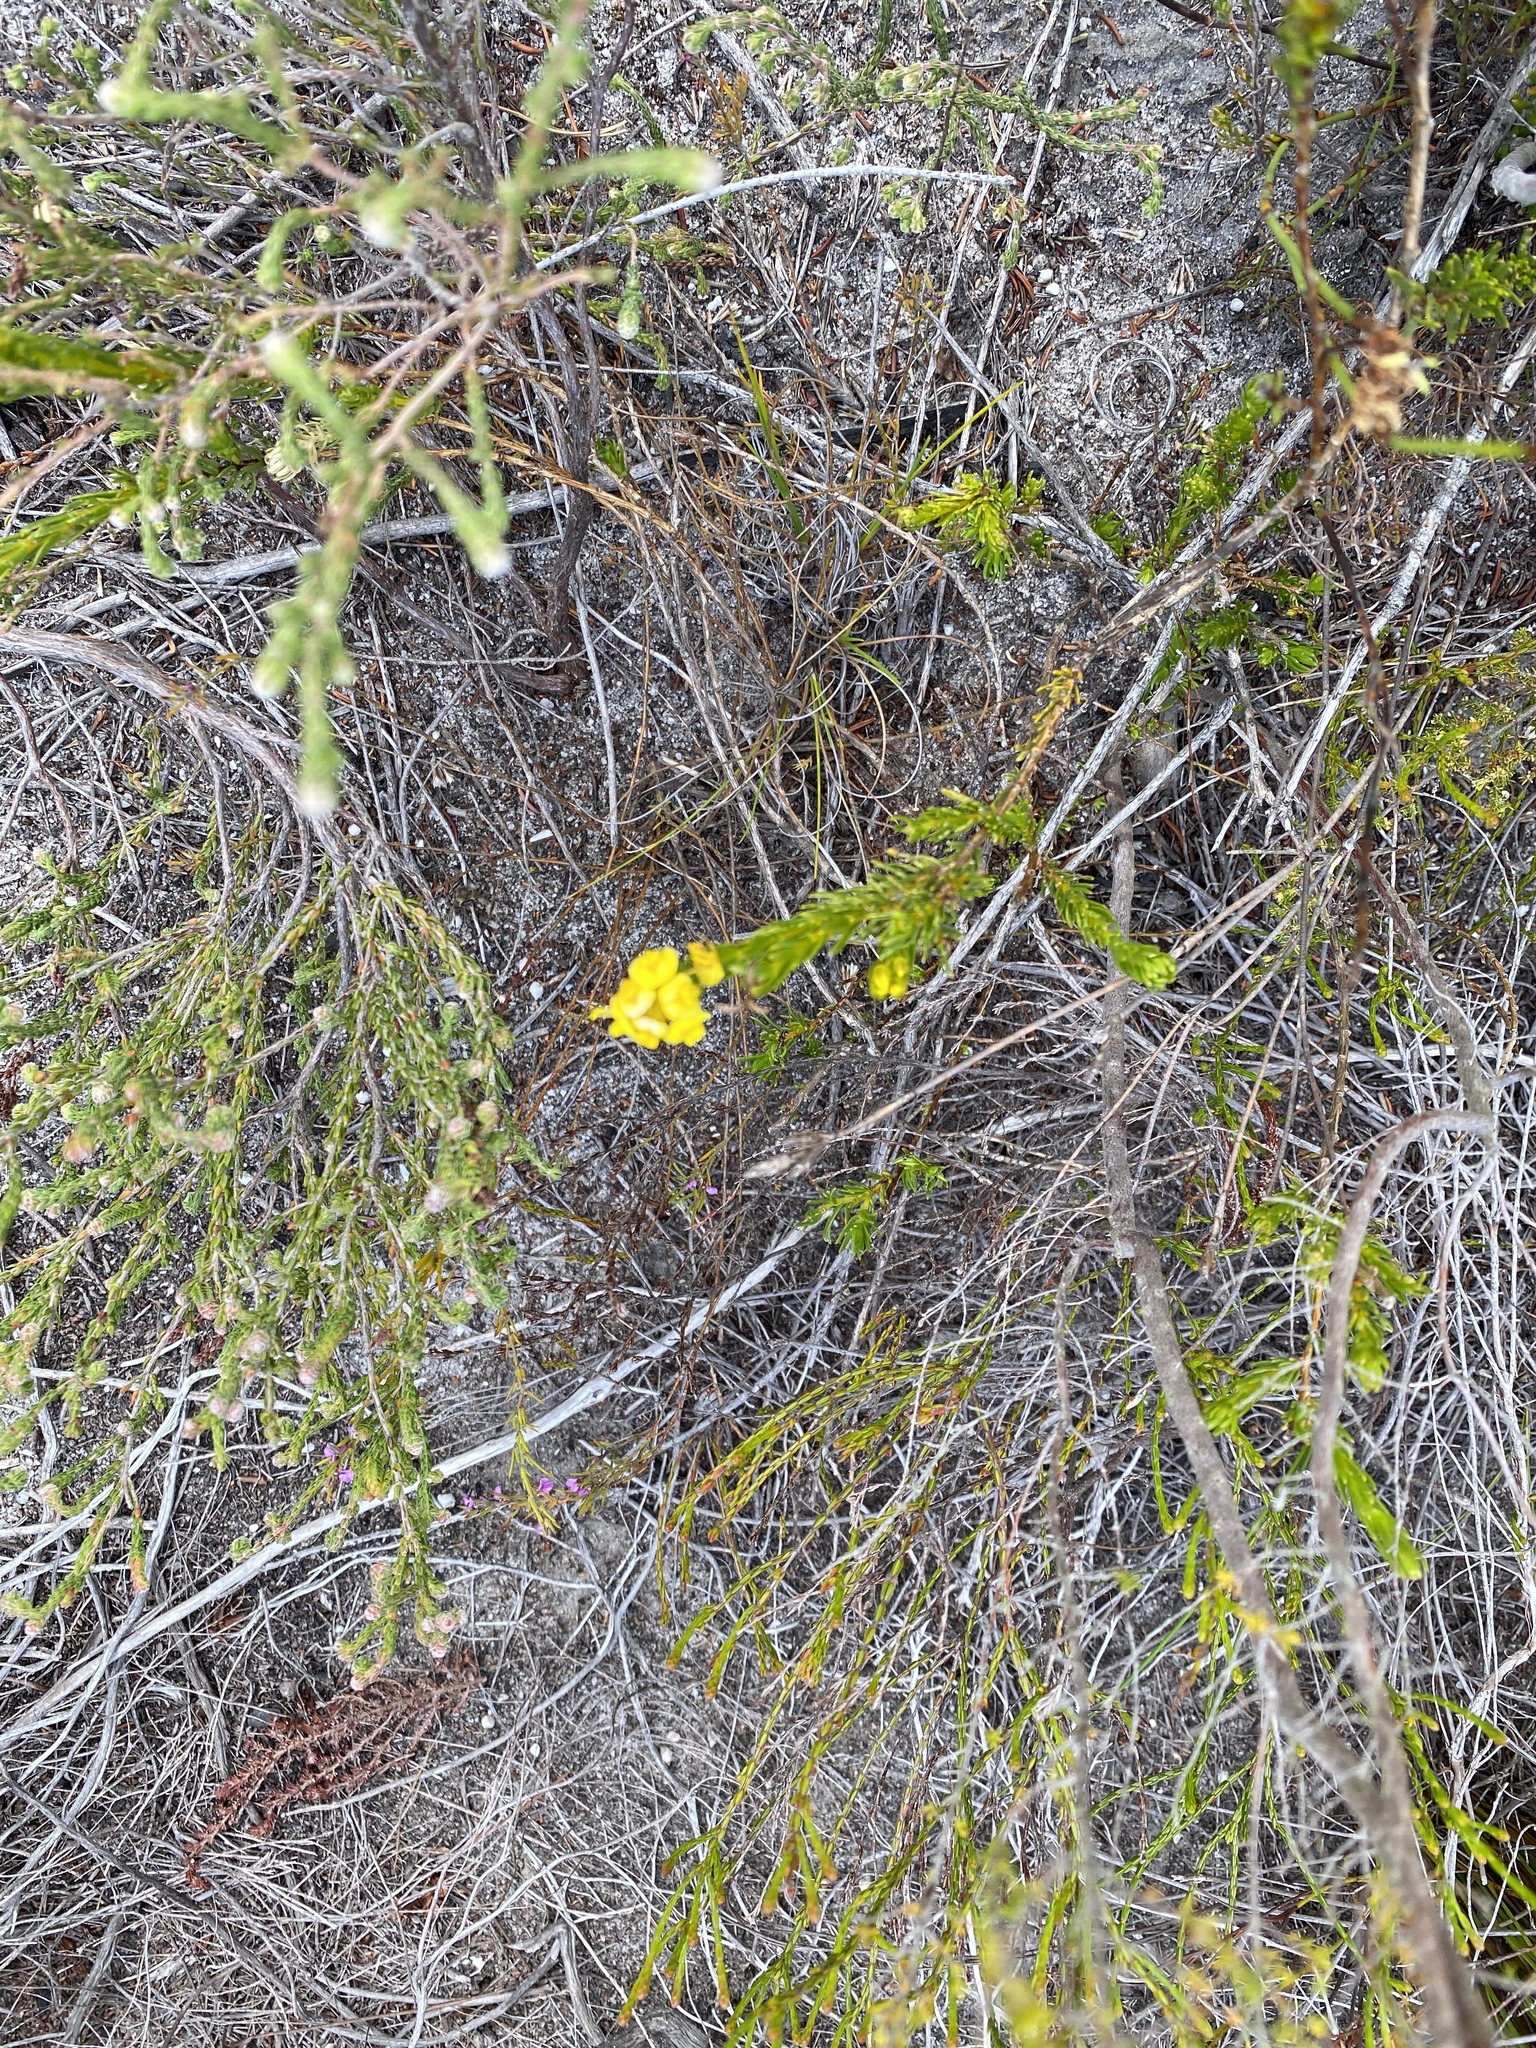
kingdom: Plantae
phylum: Tracheophyta
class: Magnoliopsida
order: Fabales
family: Fabaceae
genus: Aspalathus
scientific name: Aspalathus callosa
